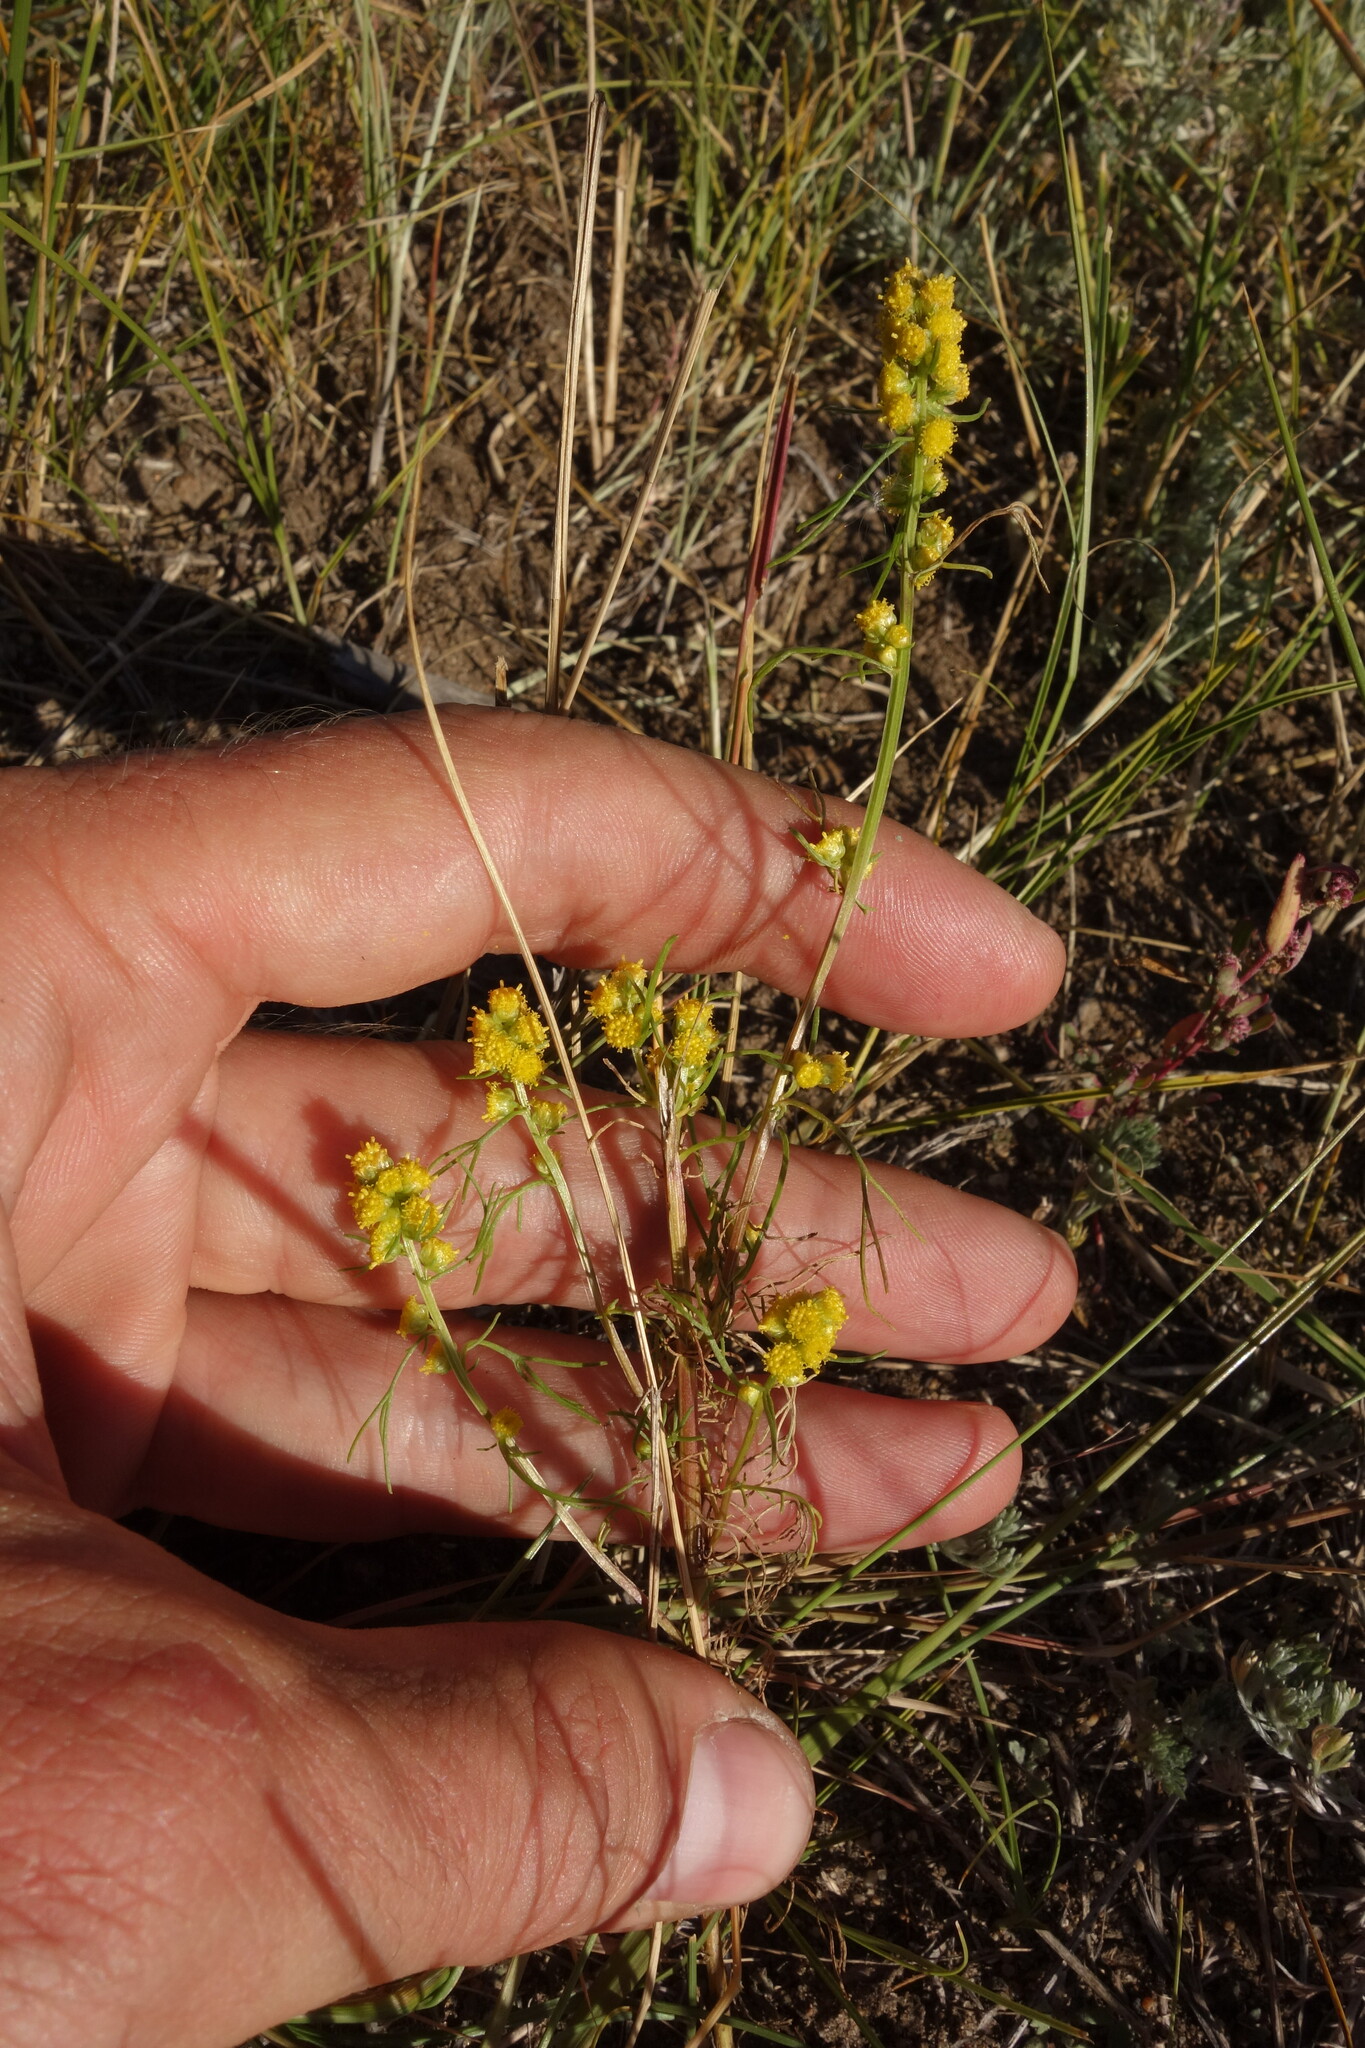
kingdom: Plantae
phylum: Tracheophyta
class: Magnoliopsida
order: Asterales
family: Asteraceae
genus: Artemisia
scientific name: Artemisia palustris
